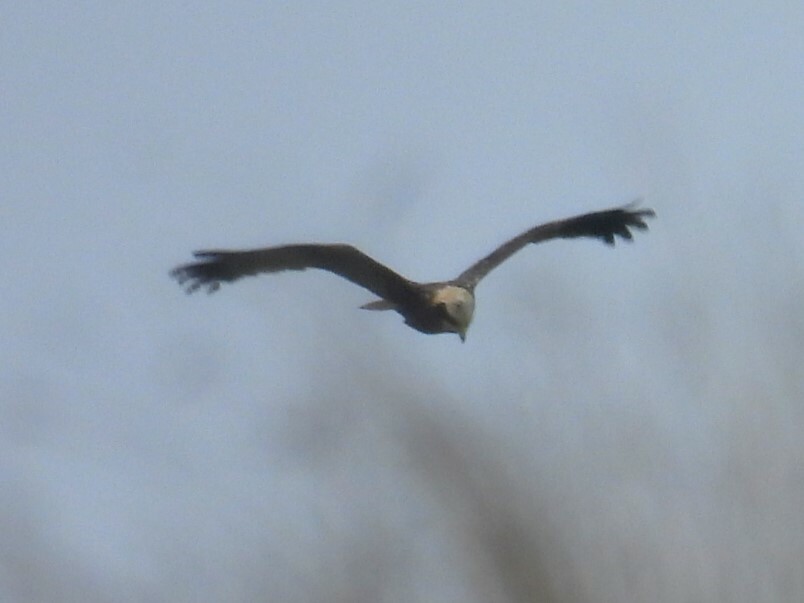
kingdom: Animalia
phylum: Chordata
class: Aves
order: Accipitriformes
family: Accipitridae
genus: Circus
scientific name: Circus aeruginosus
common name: Western marsh harrier
